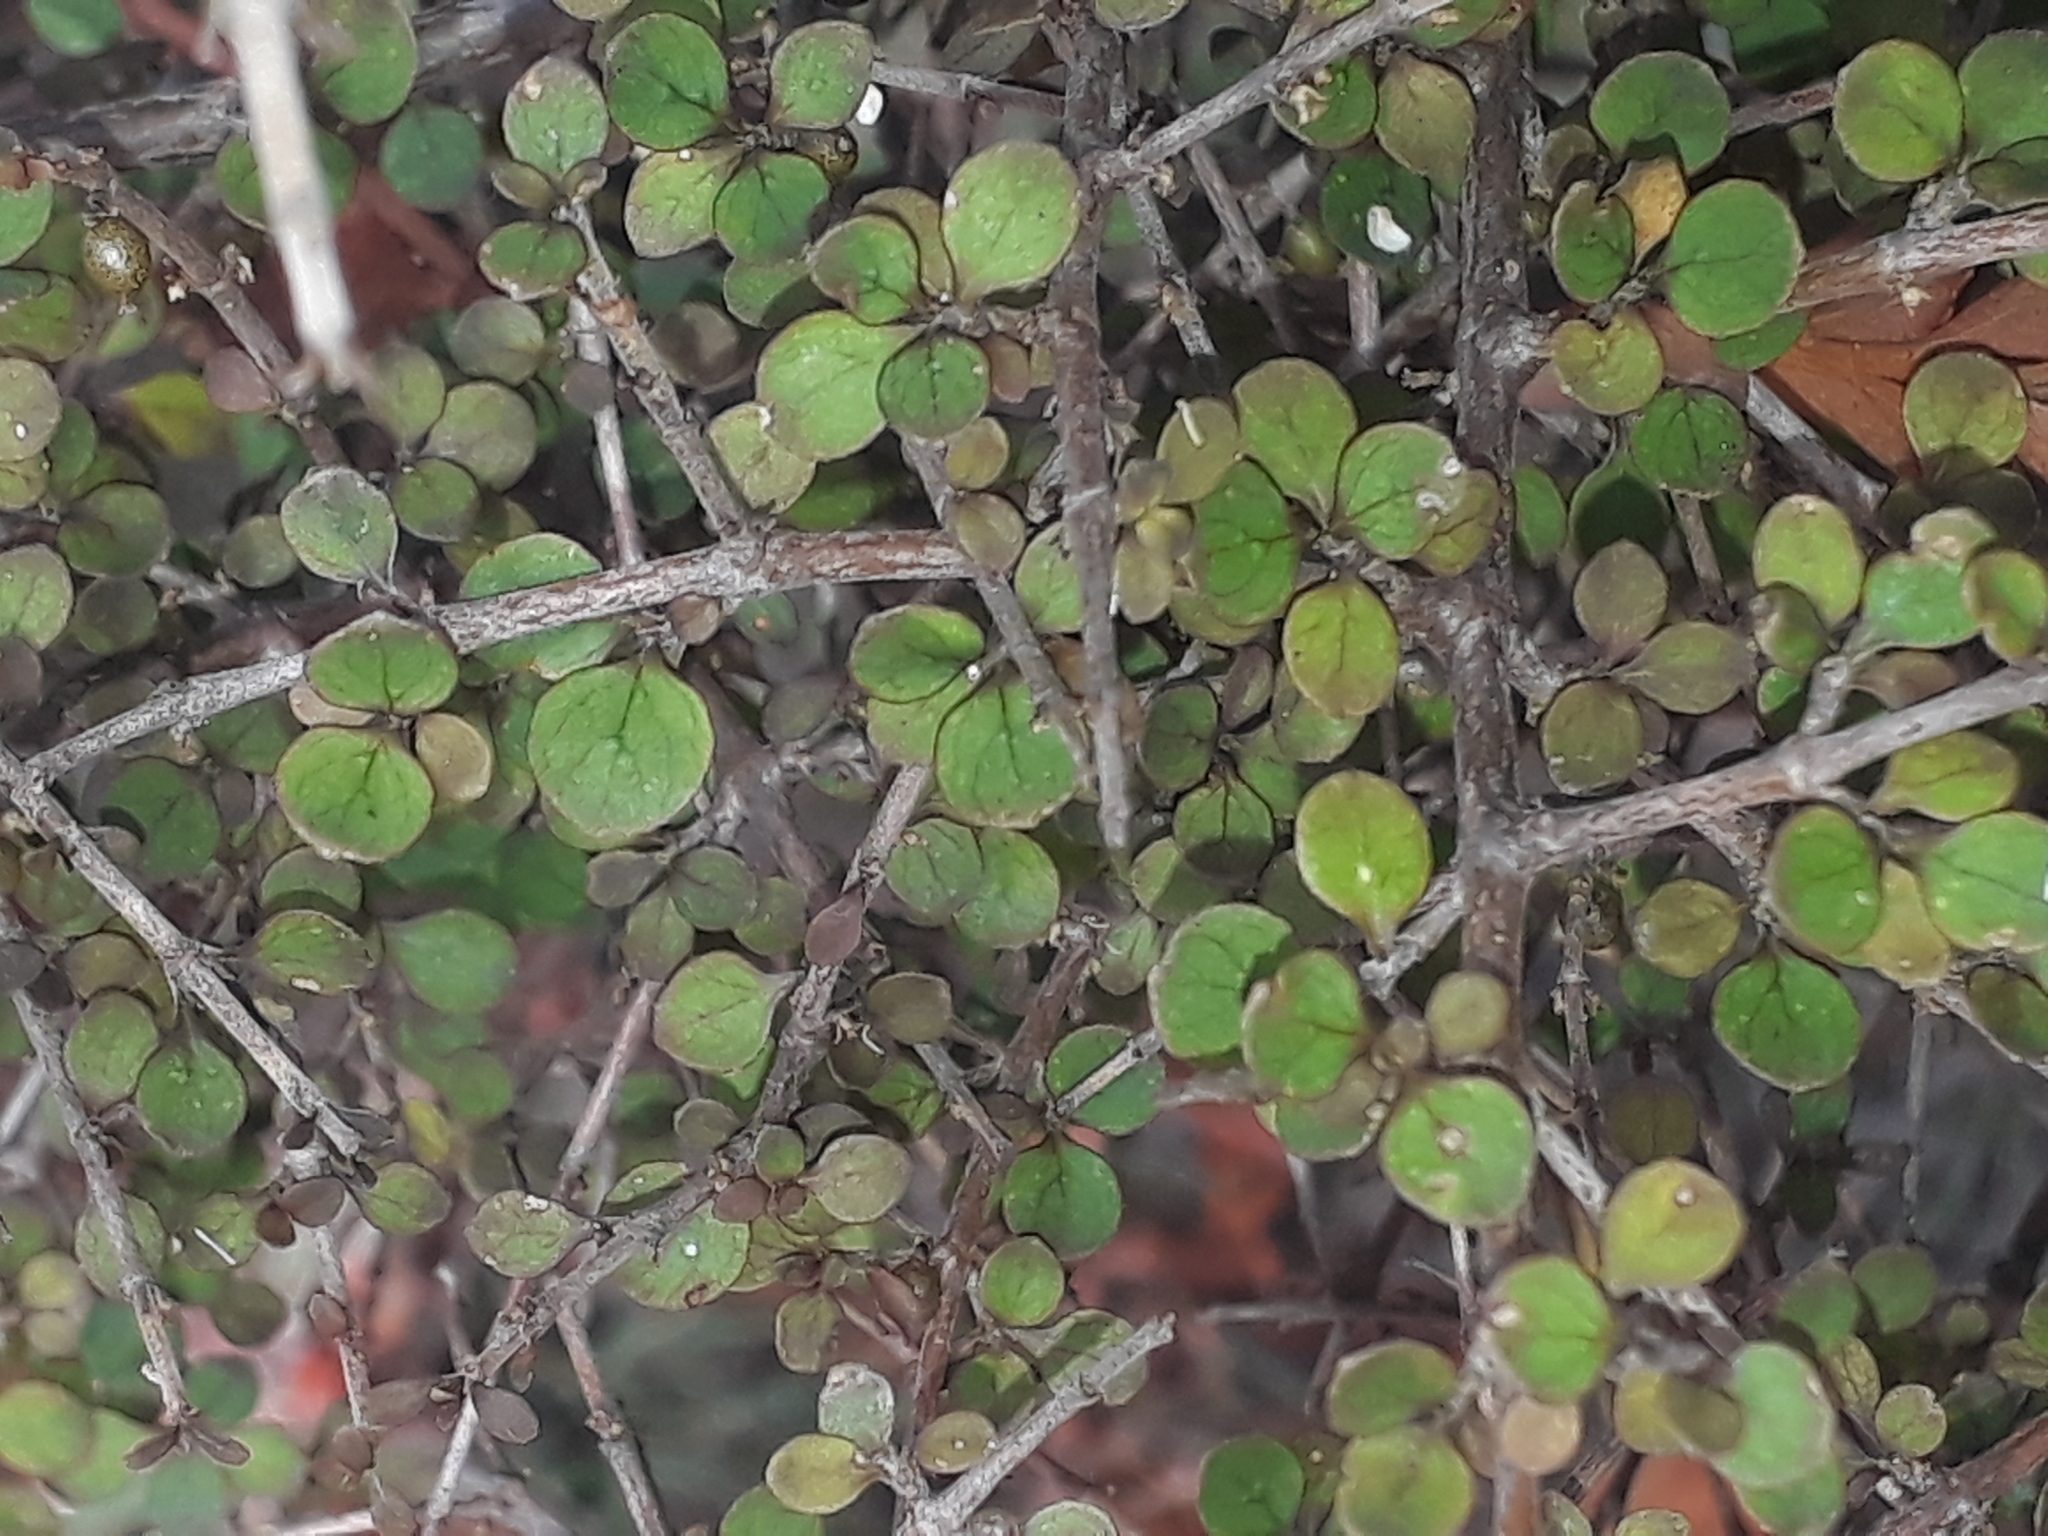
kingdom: Plantae
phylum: Tracheophyta
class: Magnoliopsida
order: Gentianales
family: Rubiaceae
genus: Coprosma
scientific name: Coprosma rhamnoides
